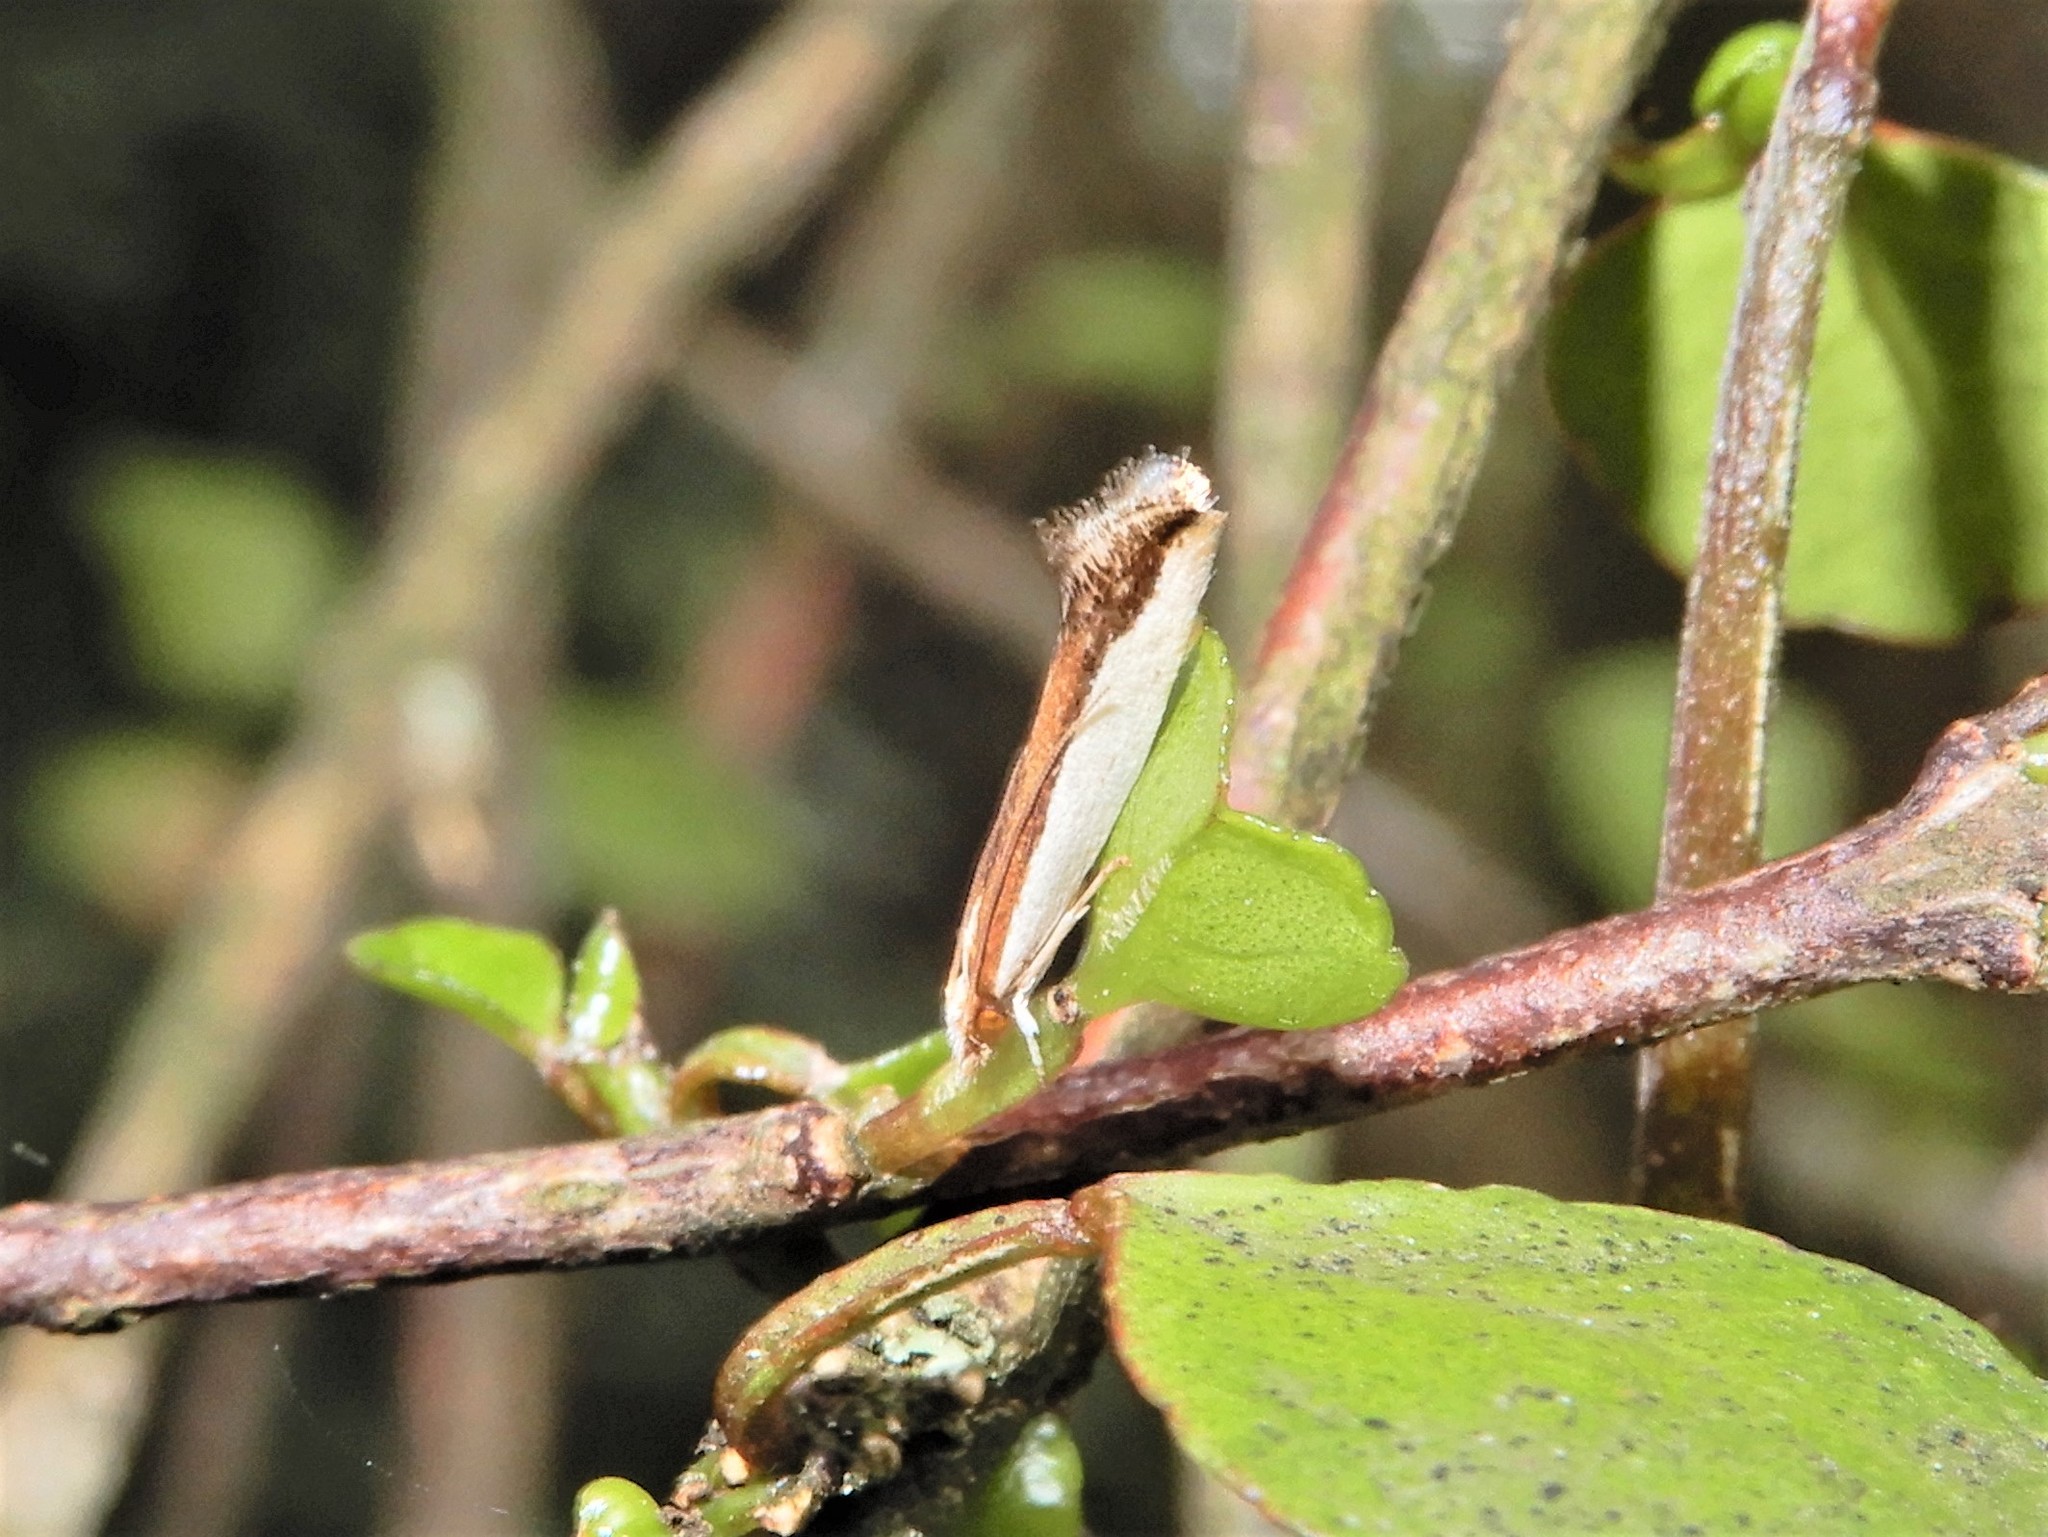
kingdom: Animalia
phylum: Arthropoda
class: Insecta
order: Lepidoptera
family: Tineidae
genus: Erechthias
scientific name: Erechthias chionodira
